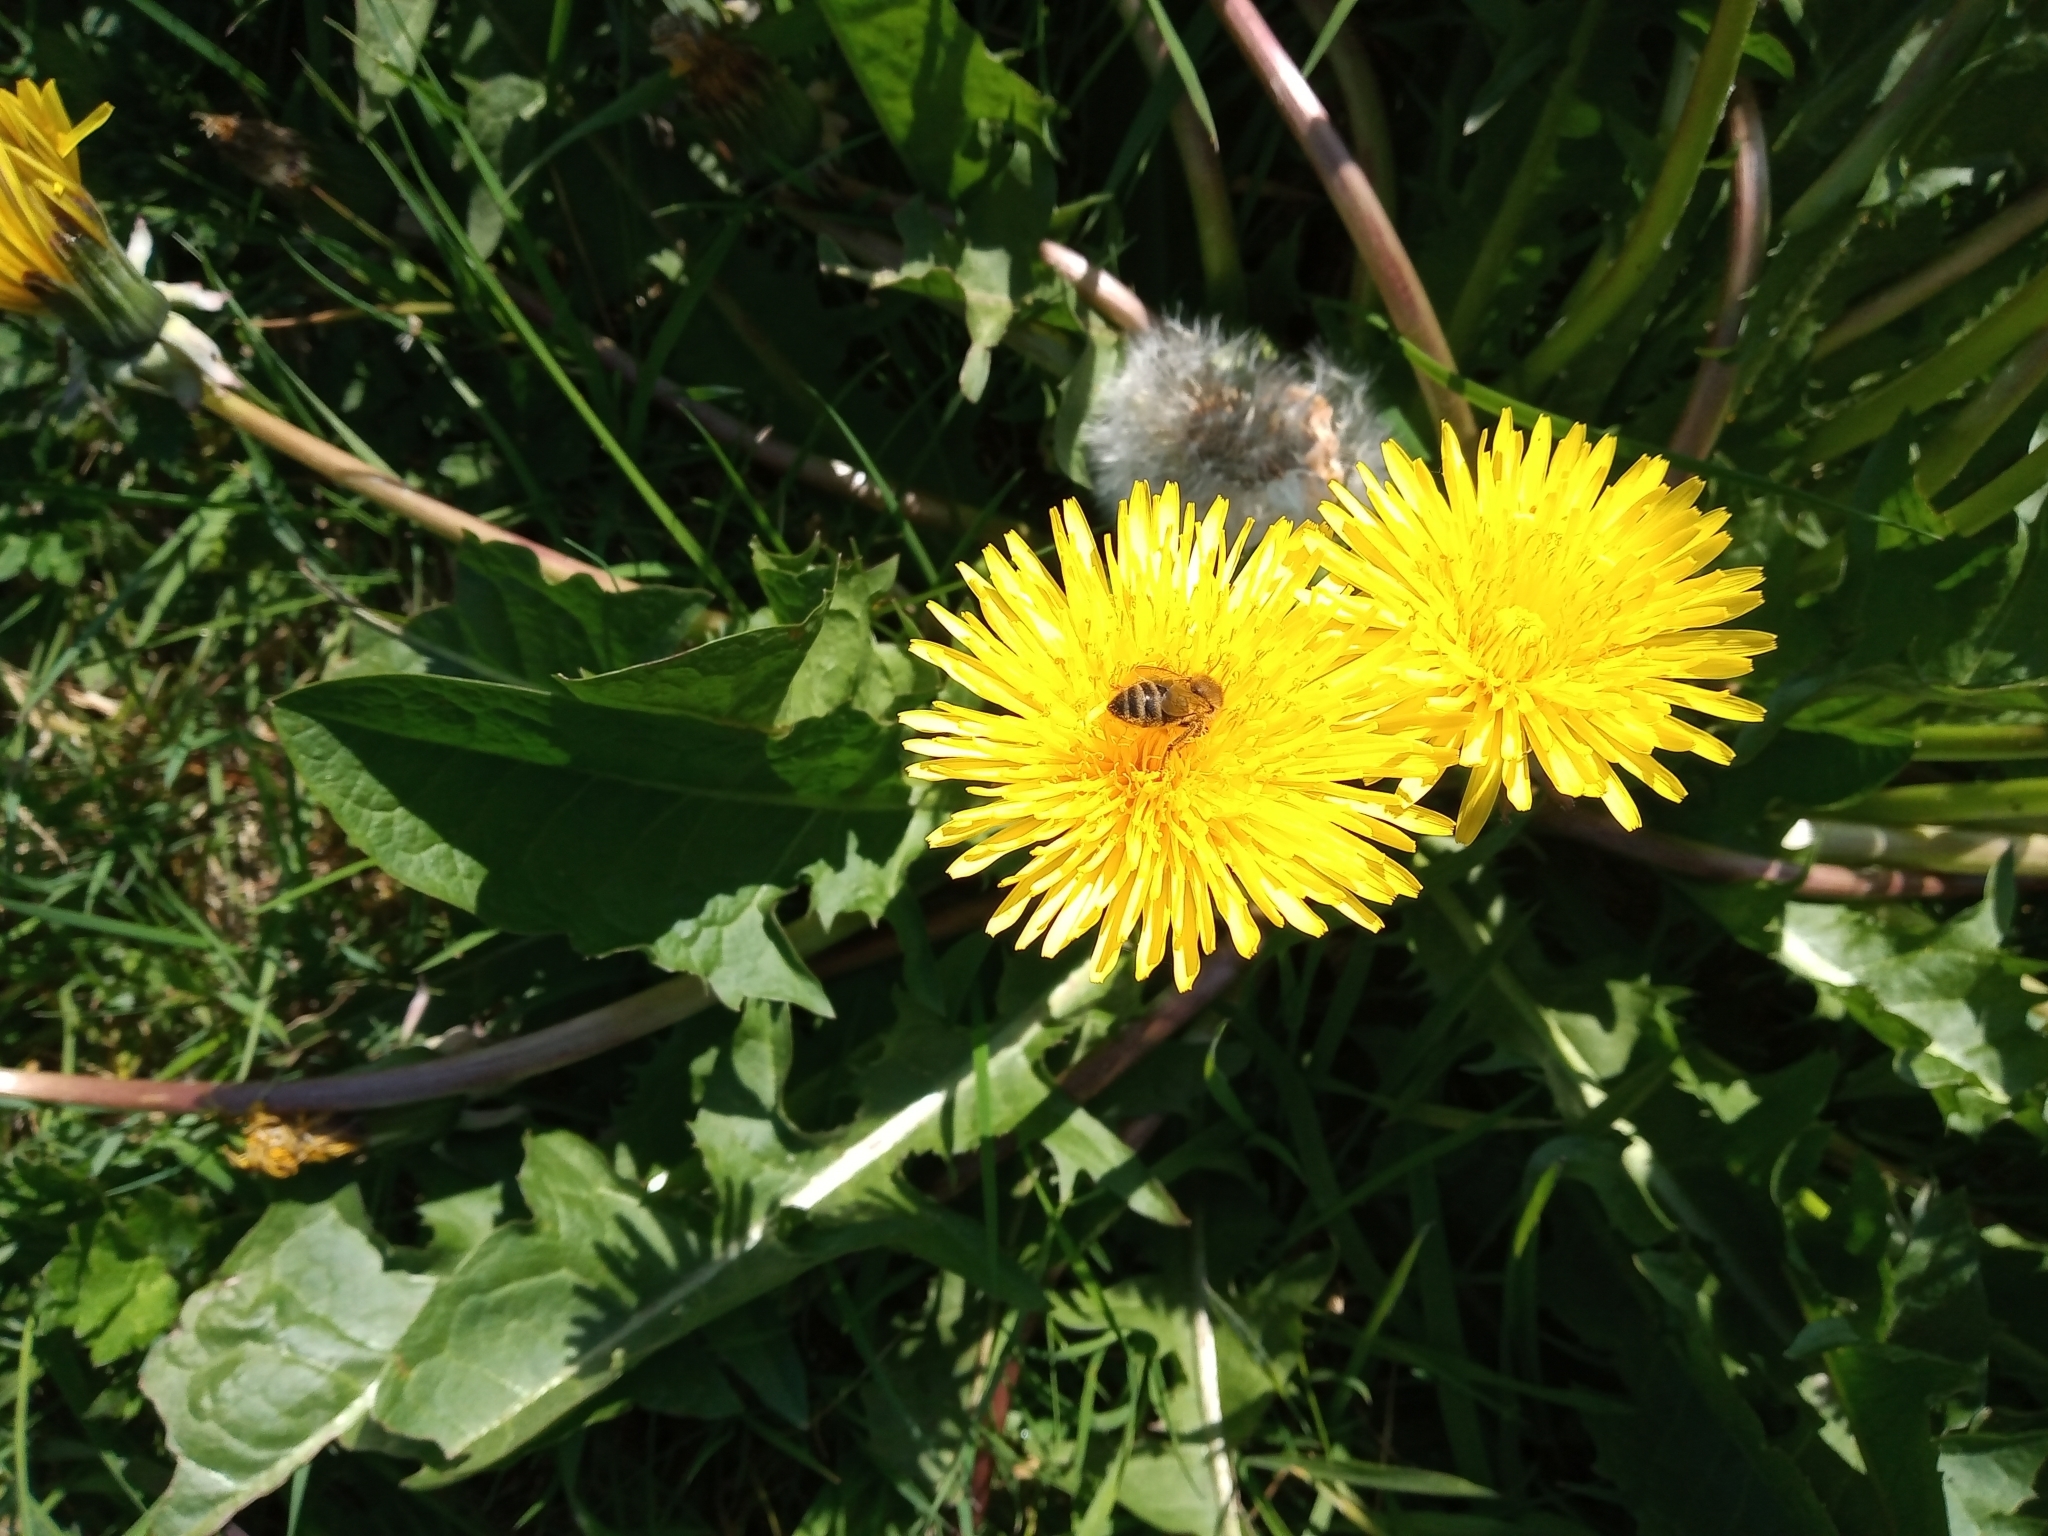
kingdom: Animalia
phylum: Arthropoda
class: Insecta
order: Hymenoptera
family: Apidae
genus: Apis
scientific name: Apis mellifera
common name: Honey bee
